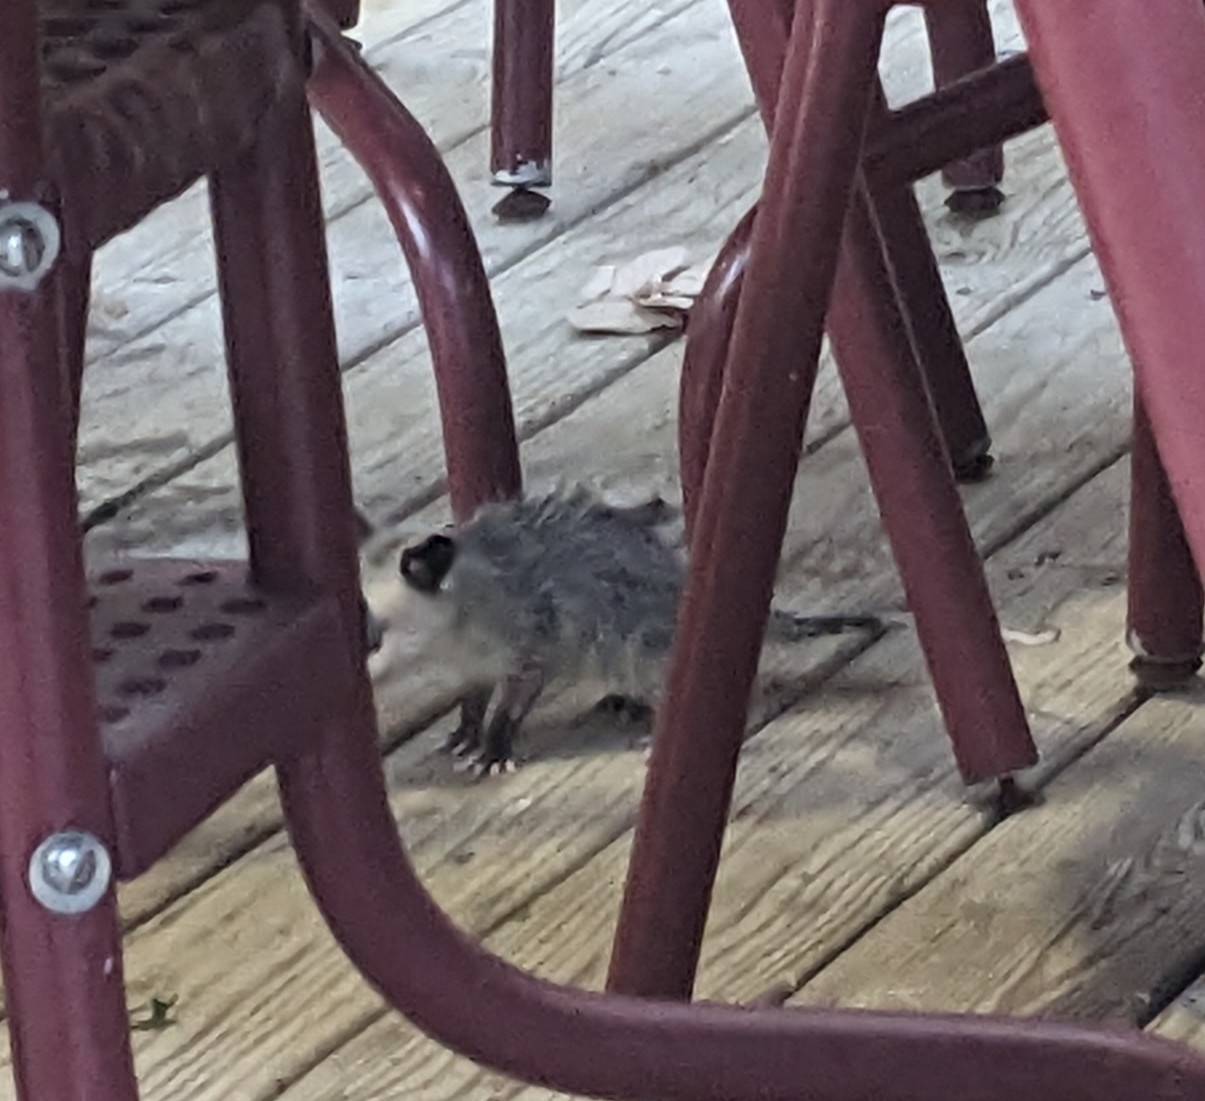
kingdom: Animalia
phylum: Chordata
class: Mammalia
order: Didelphimorphia
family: Didelphidae
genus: Didelphis
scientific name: Didelphis virginiana
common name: Virginia opossum
